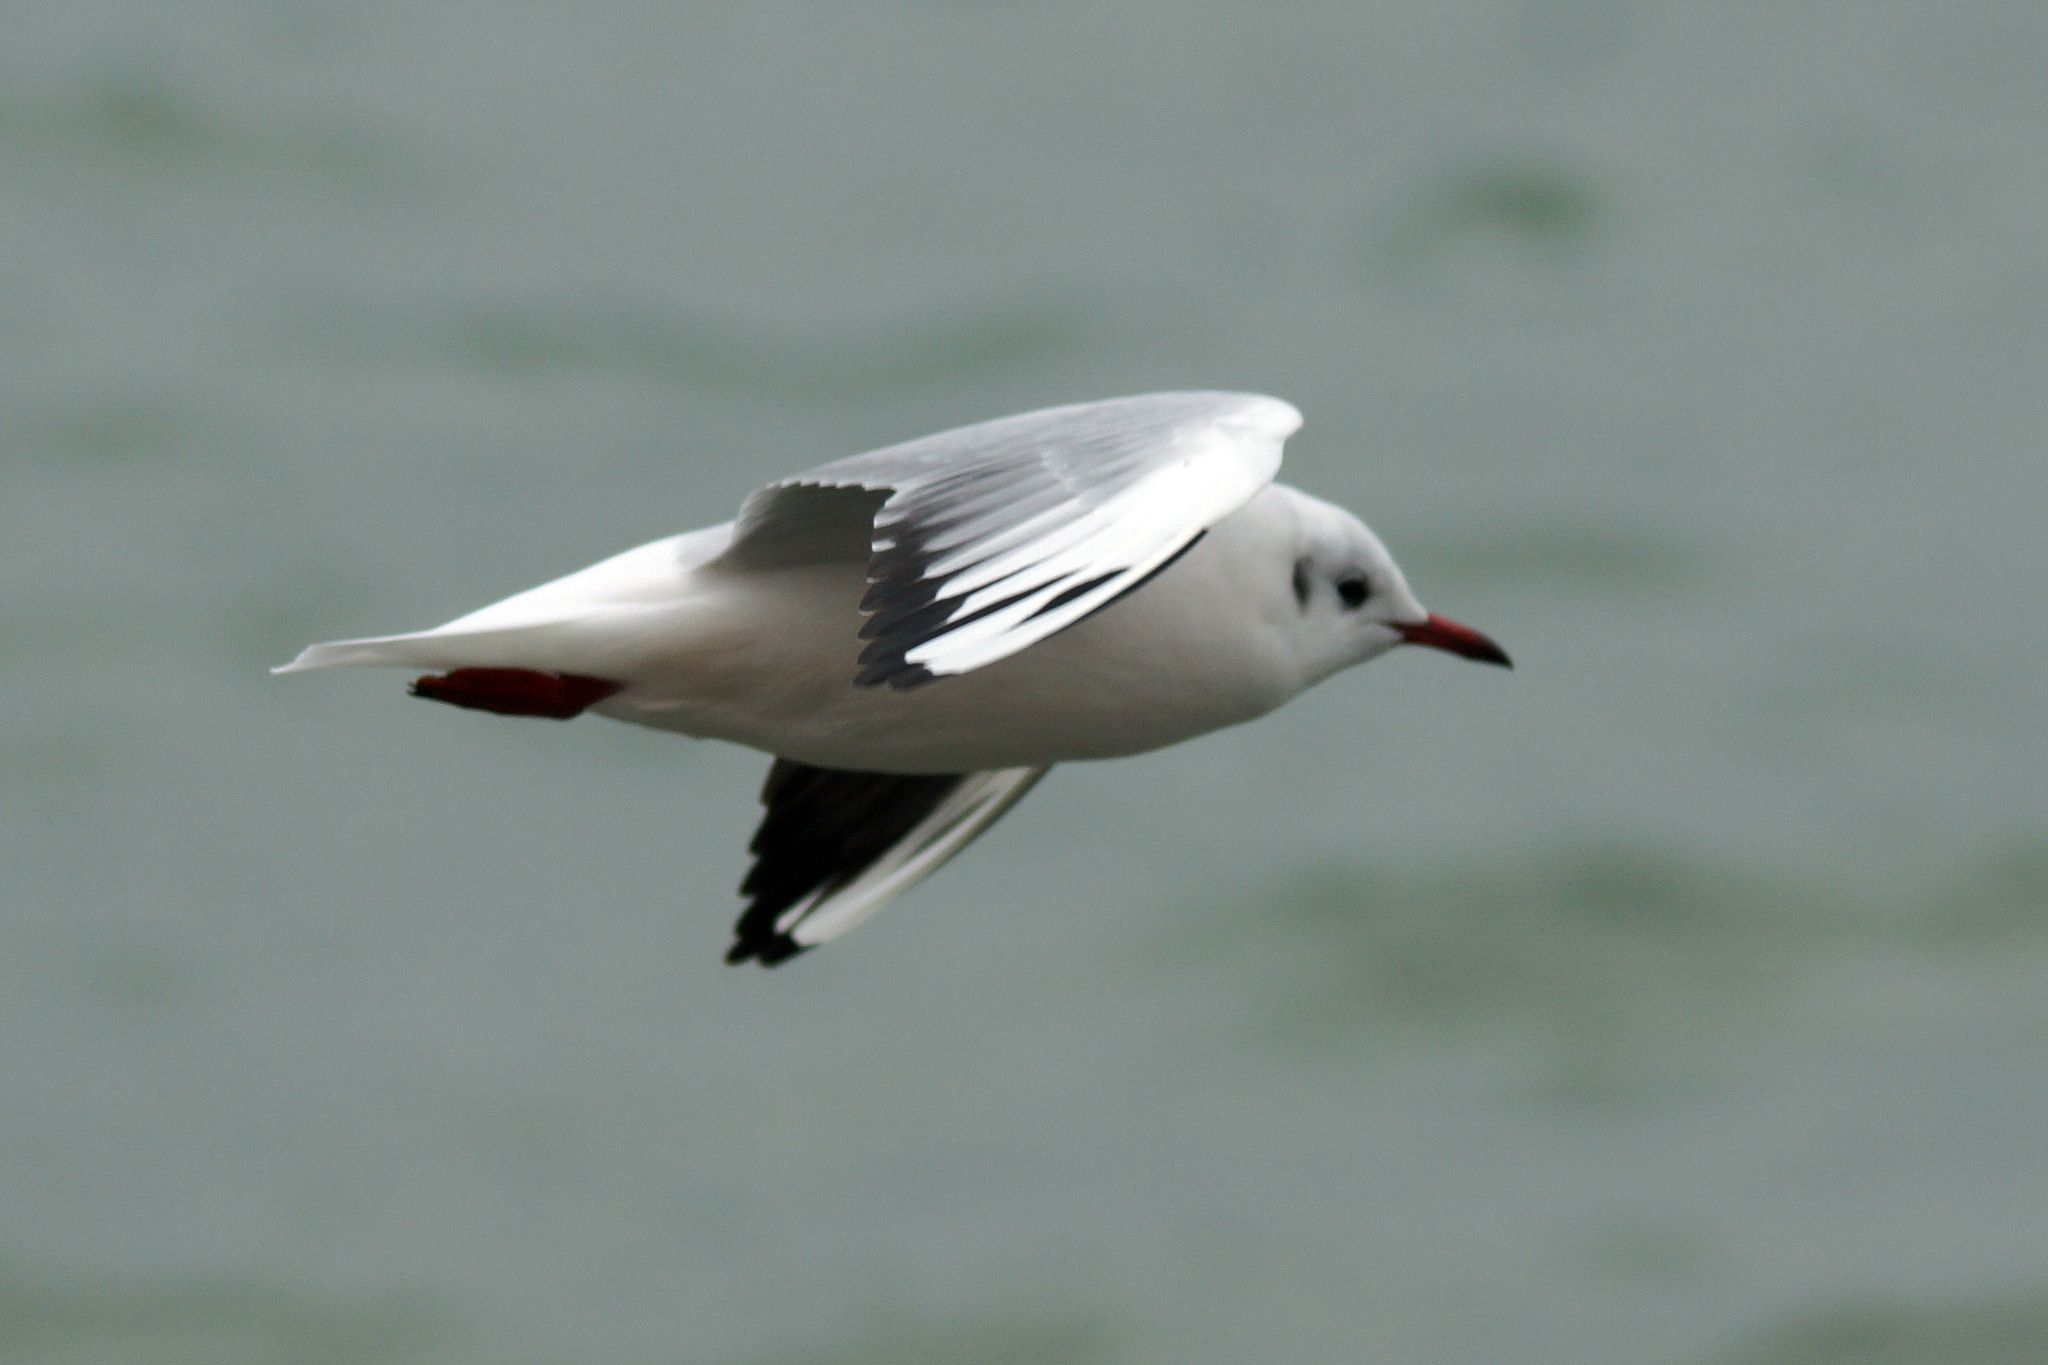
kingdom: Animalia
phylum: Chordata
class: Aves
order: Charadriiformes
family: Laridae
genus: Chroicocephalus
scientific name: Chroicocephalus ridibundus
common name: Black-headed gull
